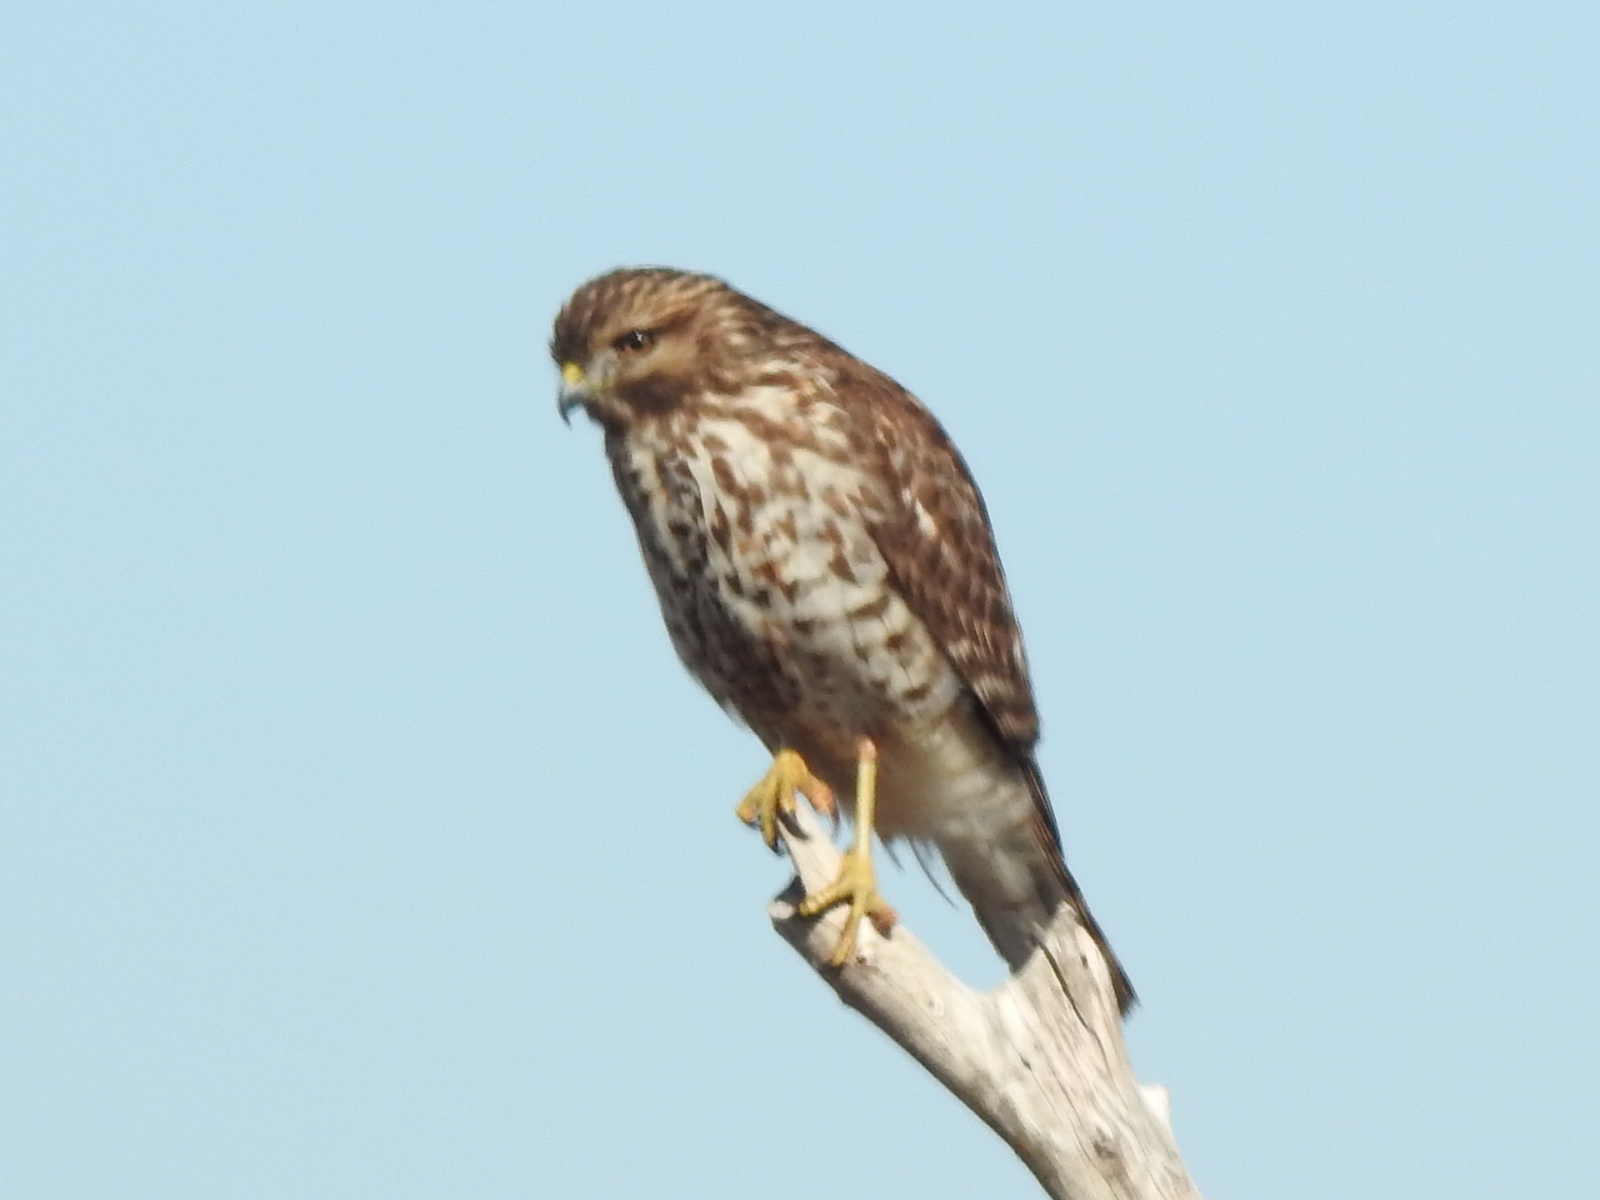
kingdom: Animalia
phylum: Chordata
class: Aves
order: Accipitriformes
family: Accipitridae
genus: Buteo
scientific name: Buteo lineatus
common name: Red-shouldered hawk
